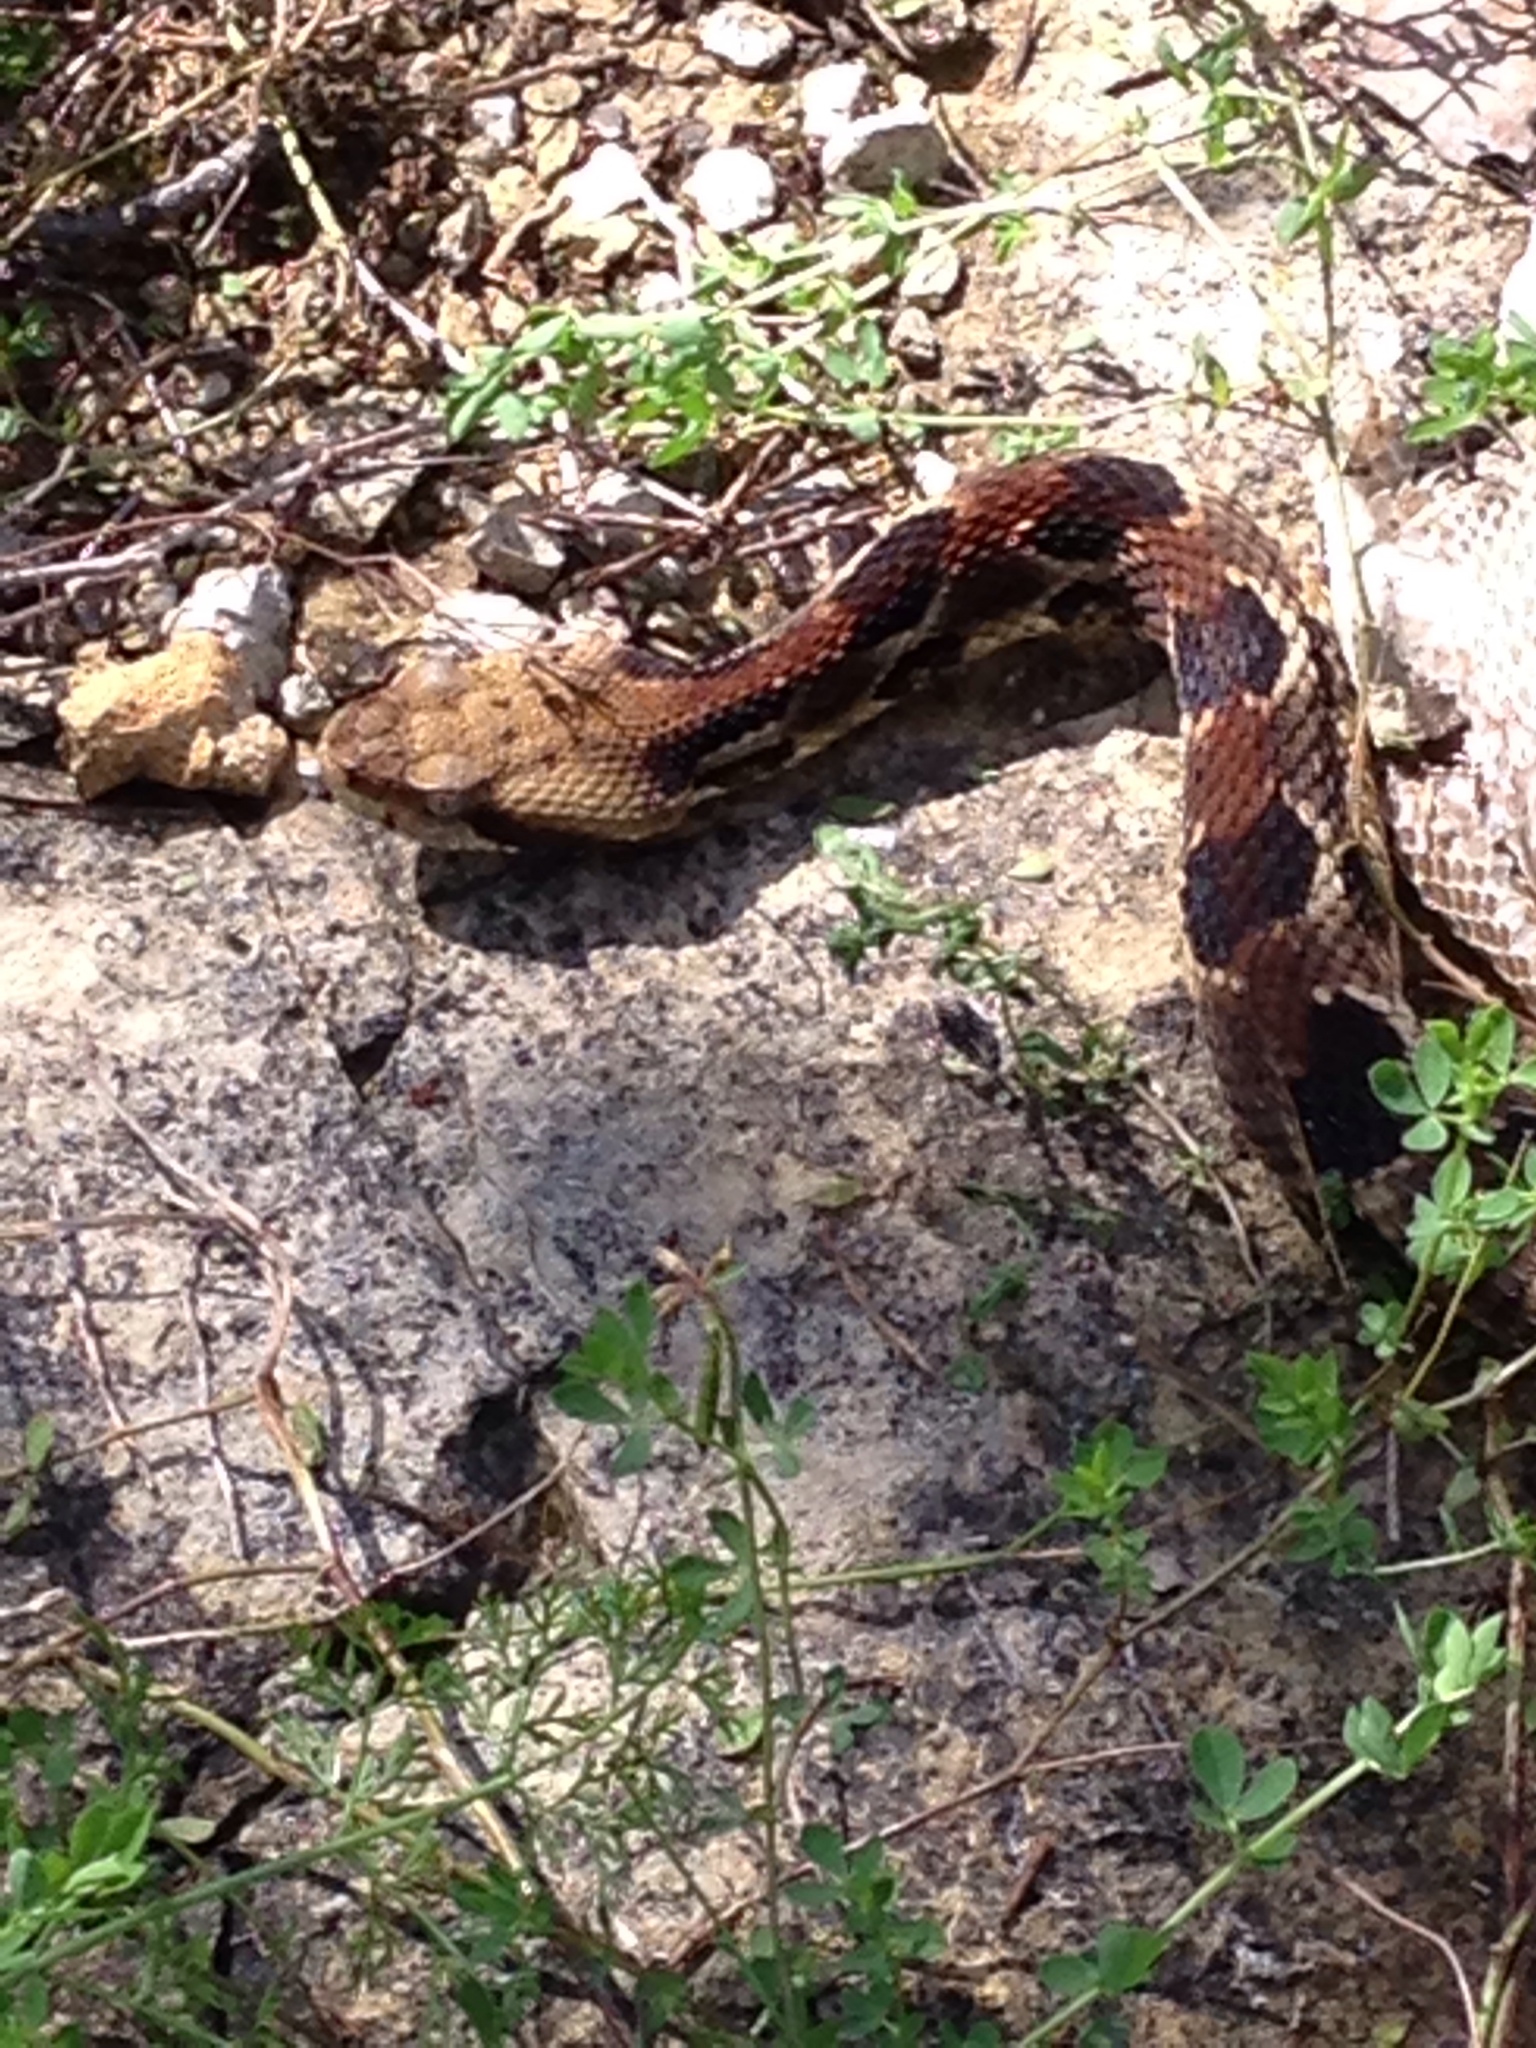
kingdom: Animalia
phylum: Chordata
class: Squamata
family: Viperidae
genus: Crotalus
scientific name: Crotalus horridus
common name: Timber rattlesnake
